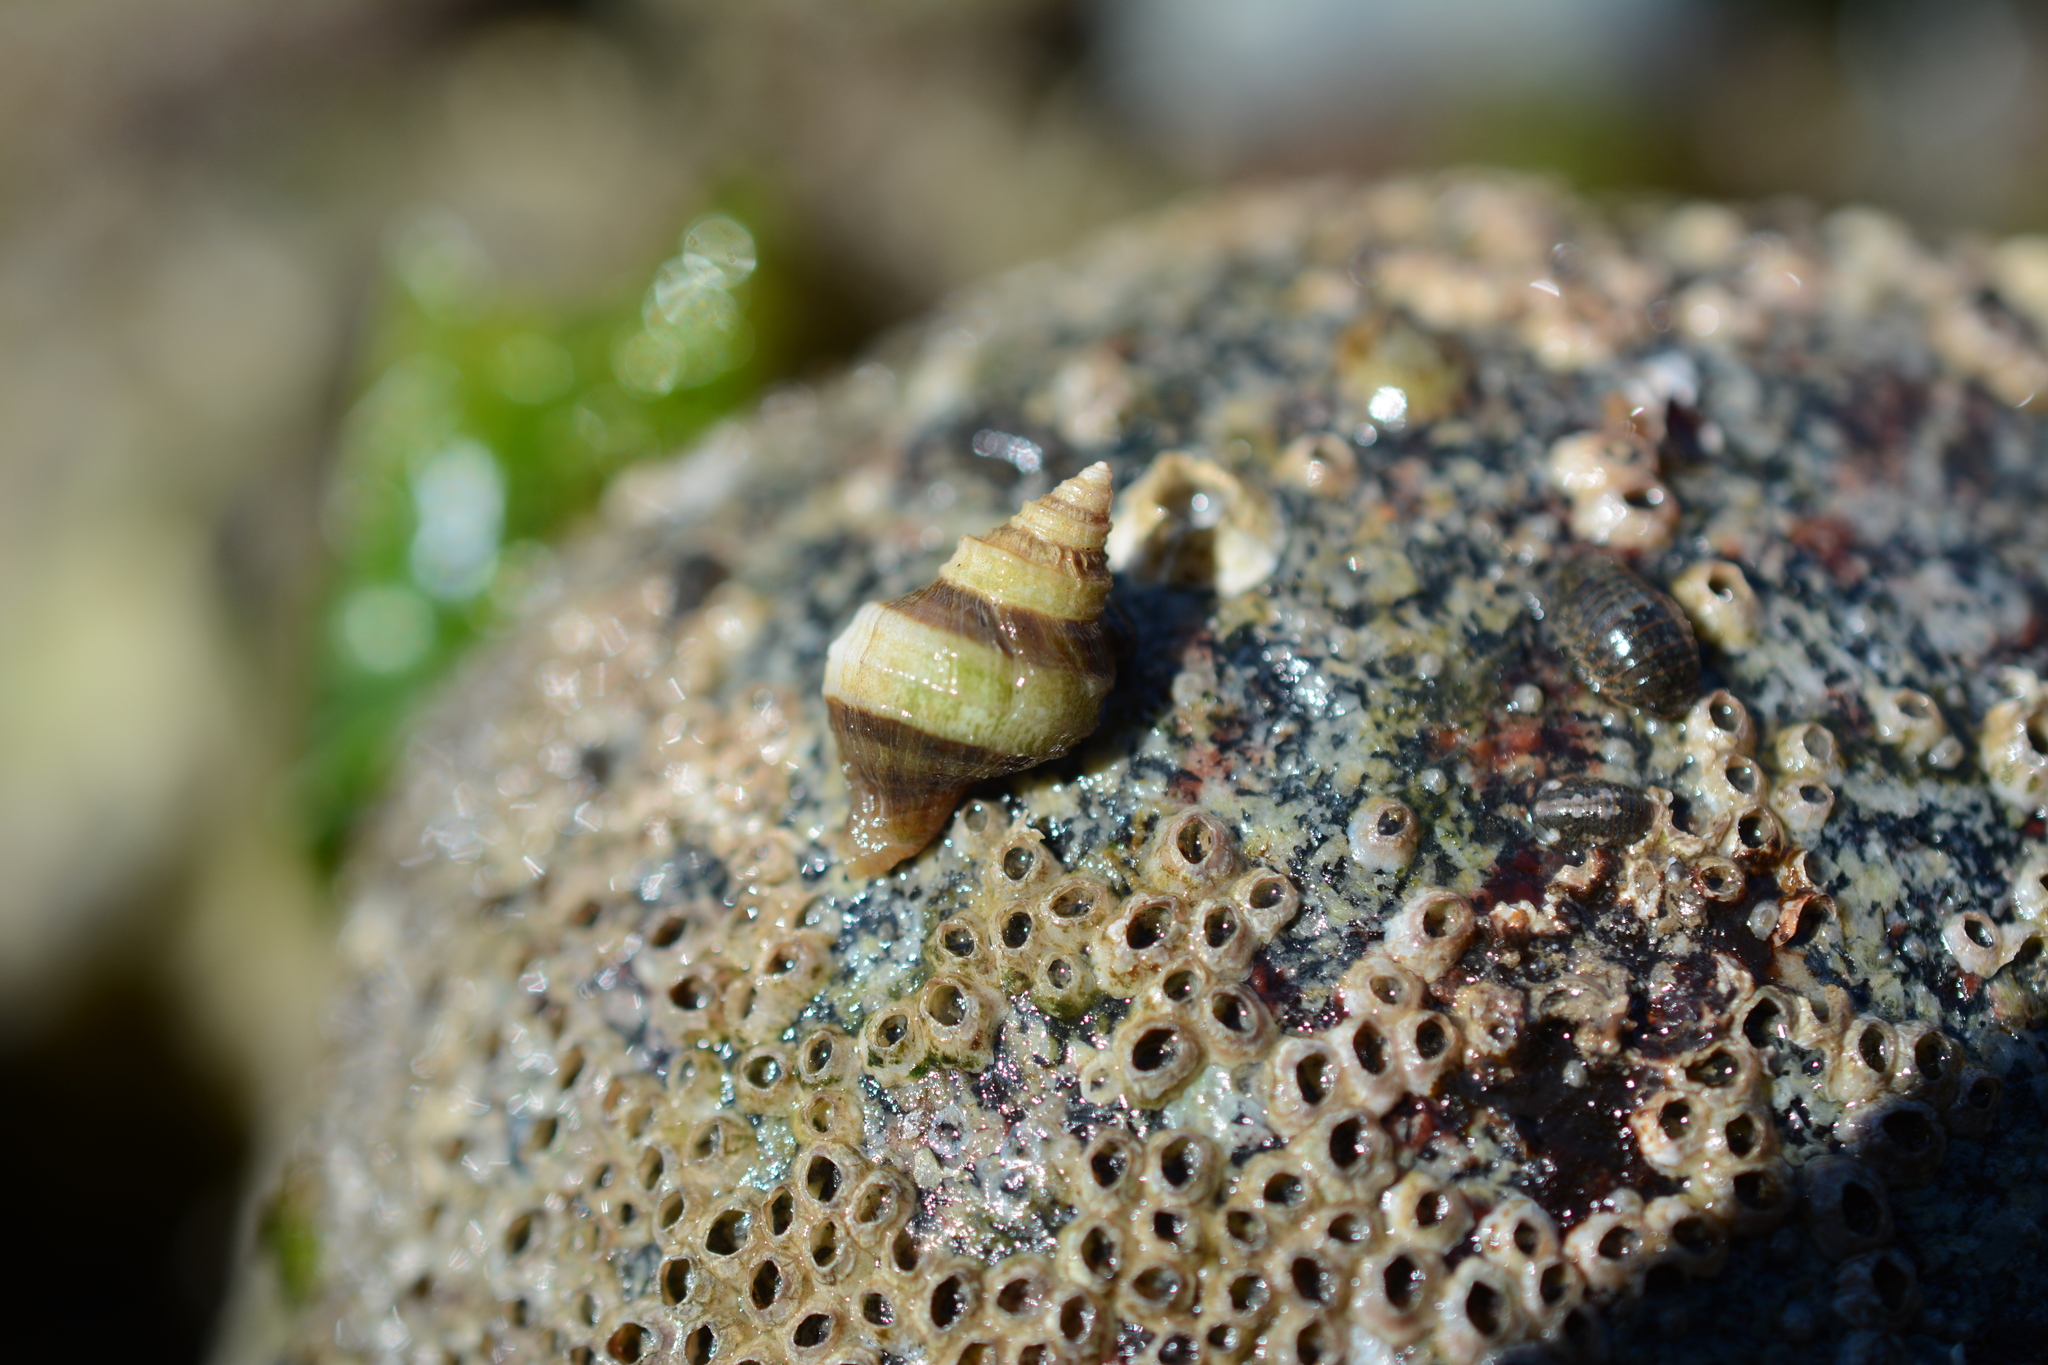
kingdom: Animalia
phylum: Mollusca
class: Gastropoda
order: Neogastropoda
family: Muricidae
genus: Nucella
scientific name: Nucella lamellosa
